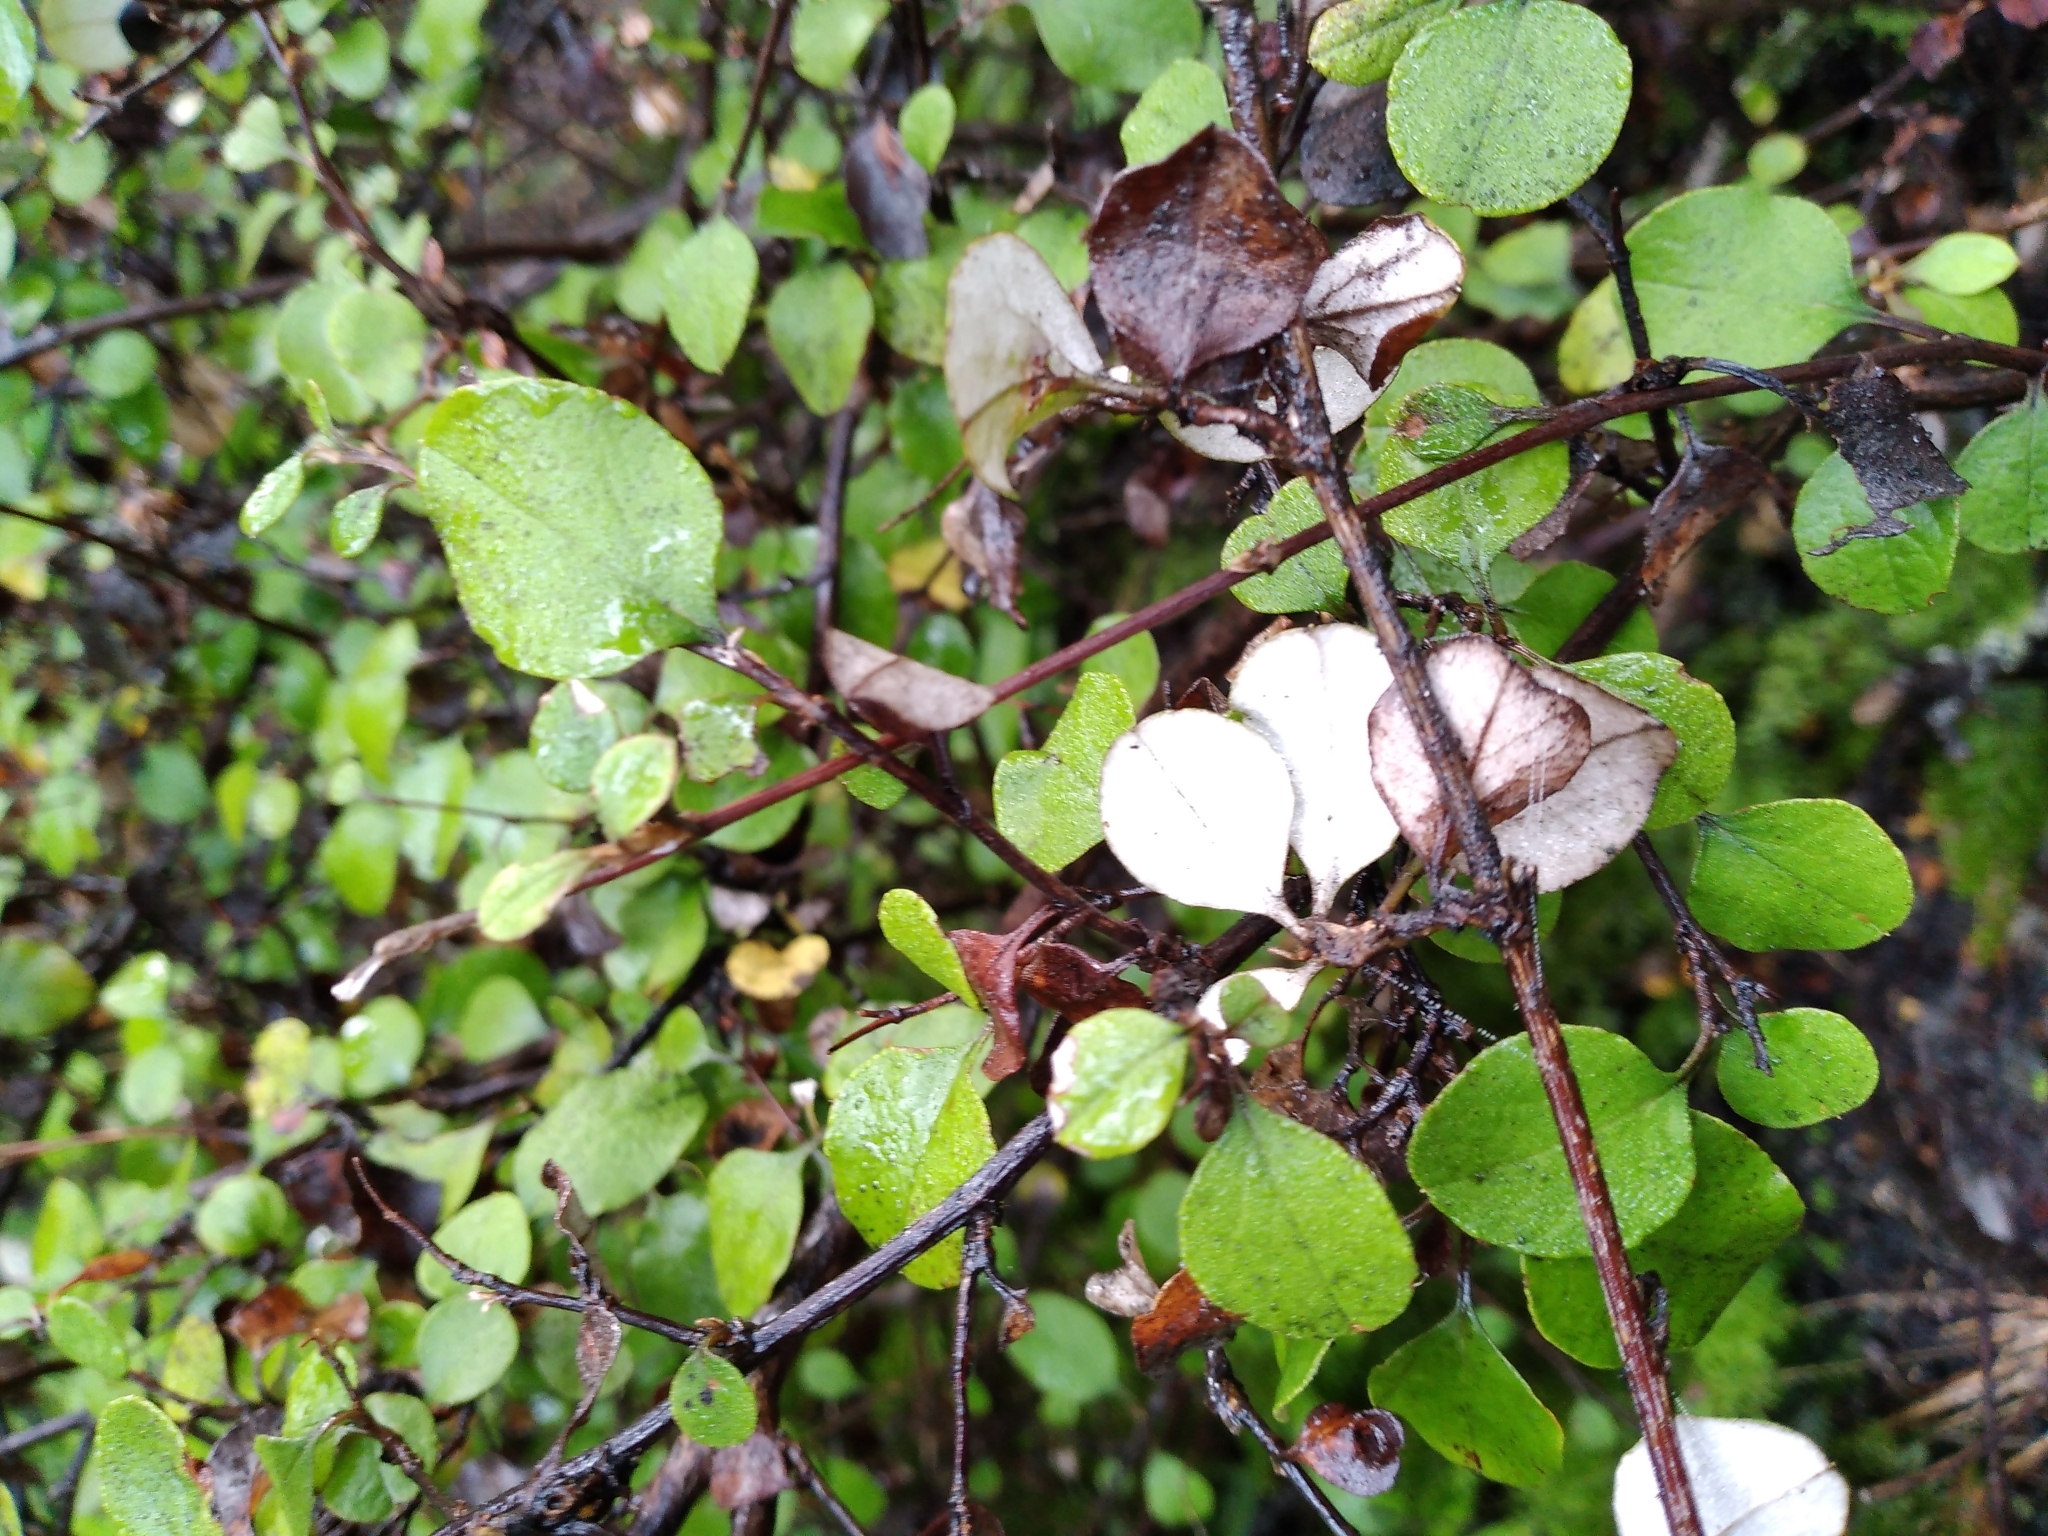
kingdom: Plantae
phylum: Tracheophyta
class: Magnoliopsida
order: Asterales
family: Asteraceae
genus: Ozothamnus
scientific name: Ozothamnus glomeratus
